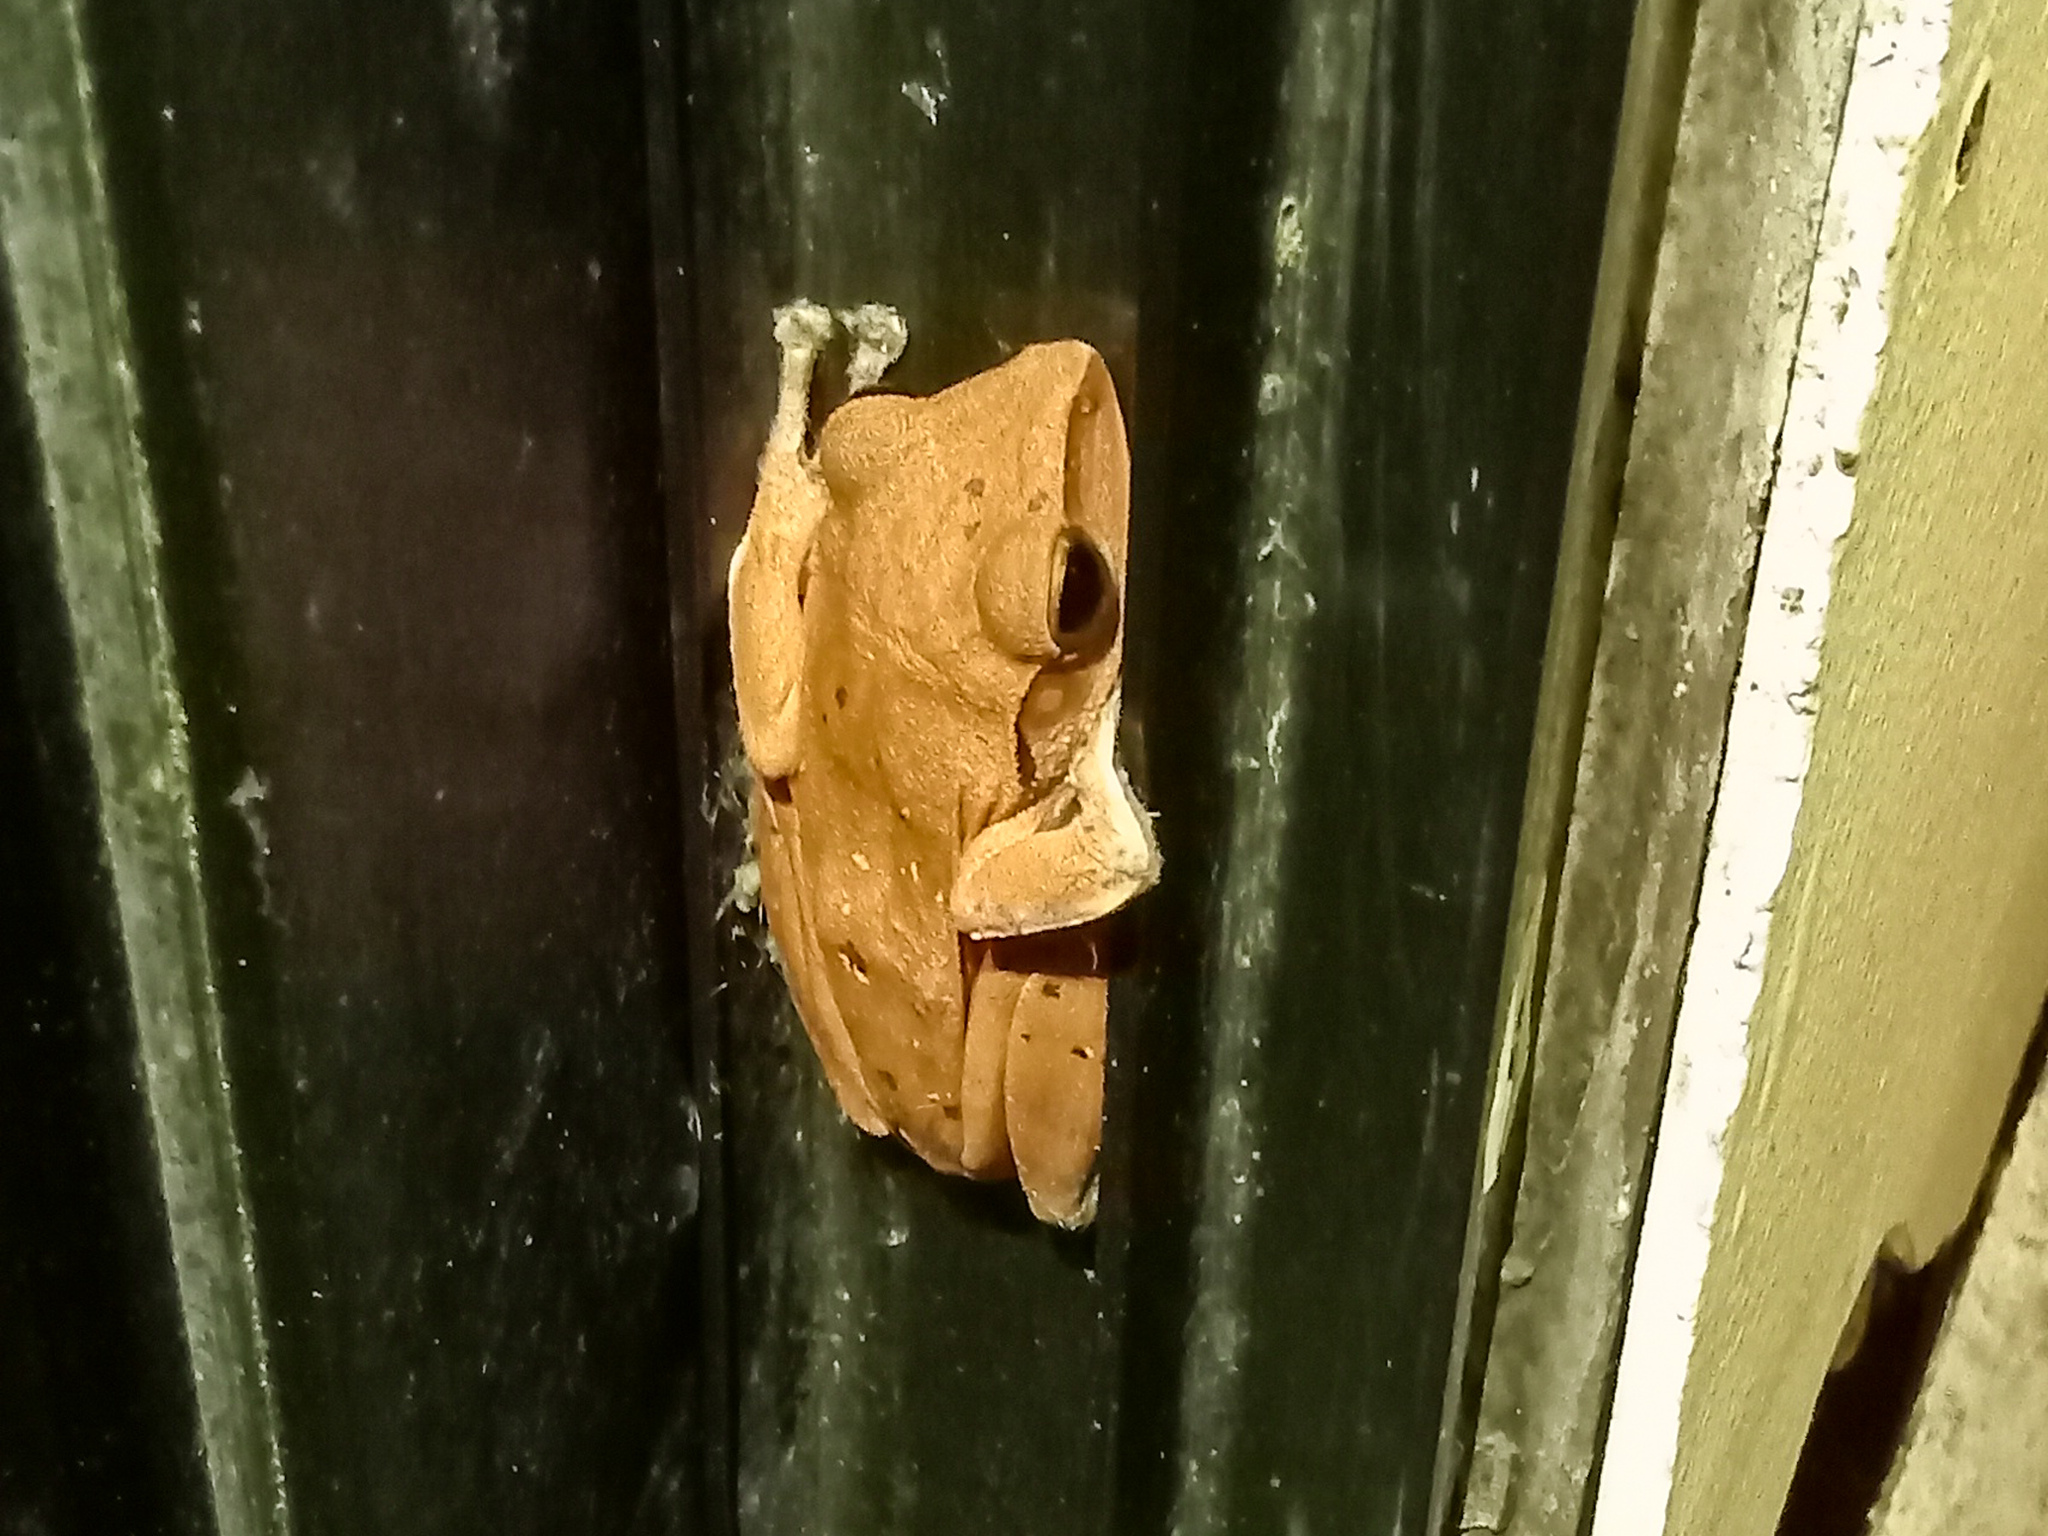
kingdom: Animalia
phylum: Chordata
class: Amphibia
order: Anura
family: Rhacophoridae
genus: Polypedates
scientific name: Polypedates megacephalus
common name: Hong kong whipping frog
